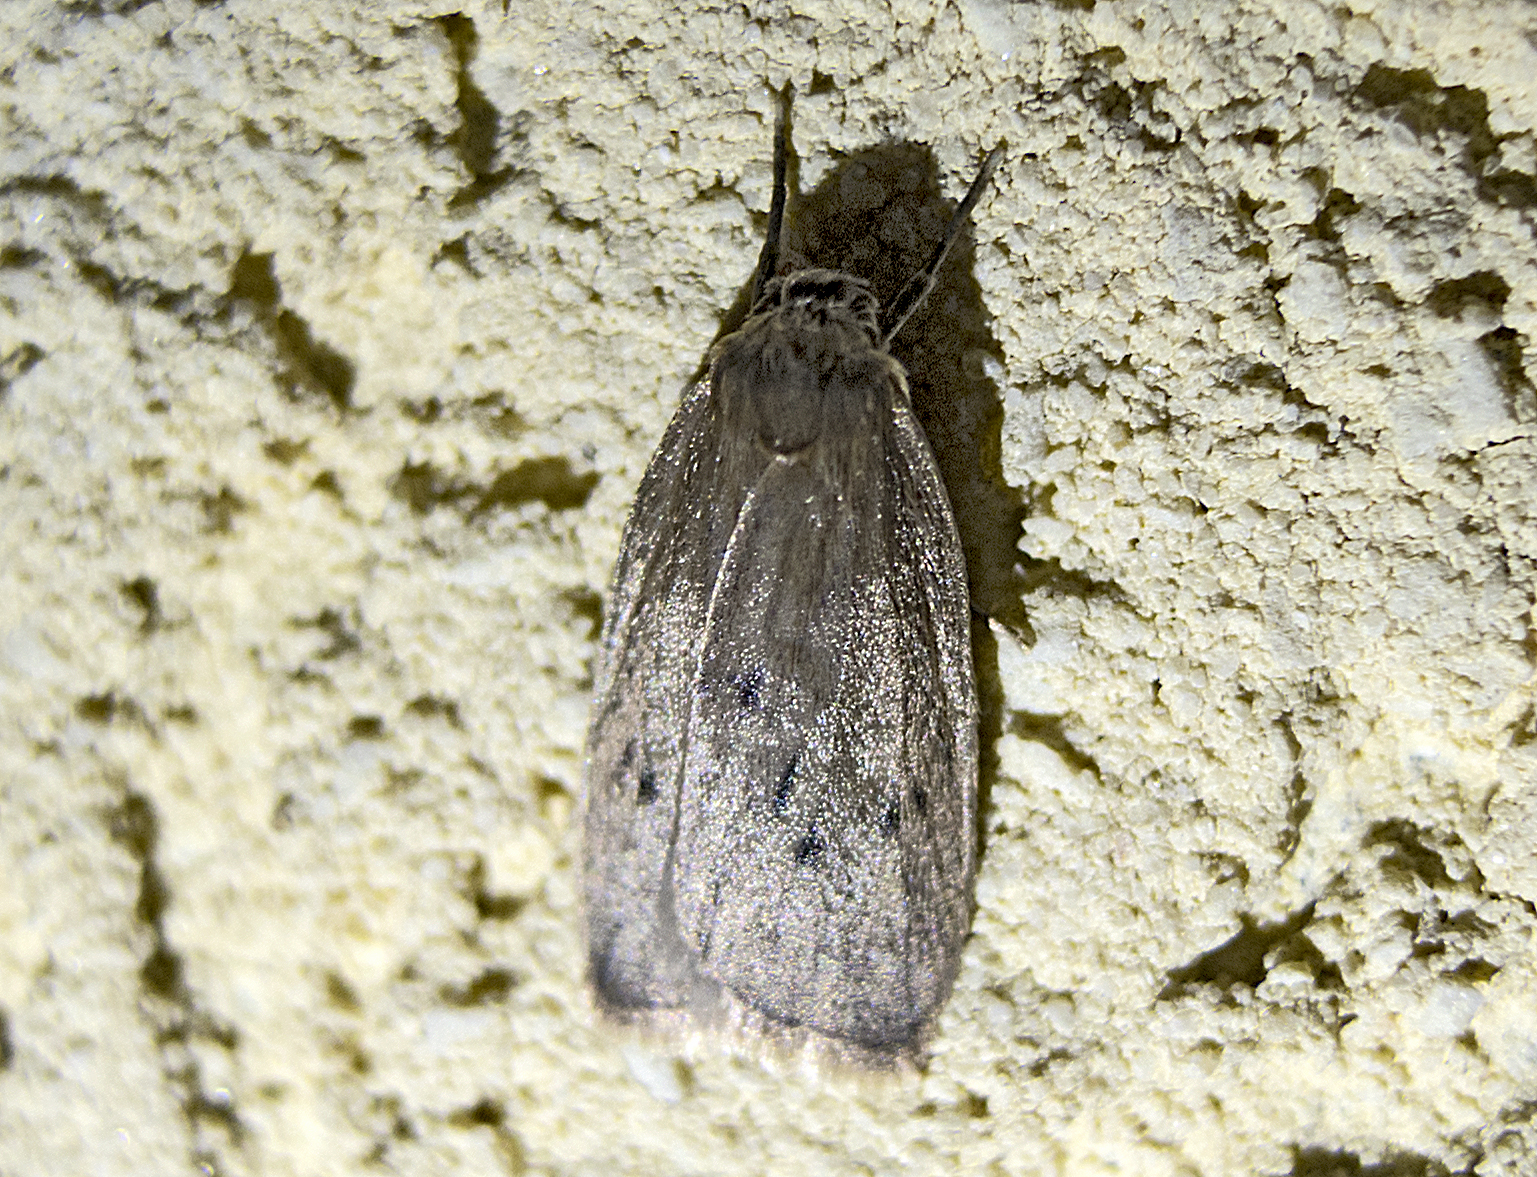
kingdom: Animalia
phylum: Arthropoda
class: Insecta
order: Lepidoptera
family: Erebidae
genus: Pelosia
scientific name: Pelosia obtusa
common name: Small dotted footman
